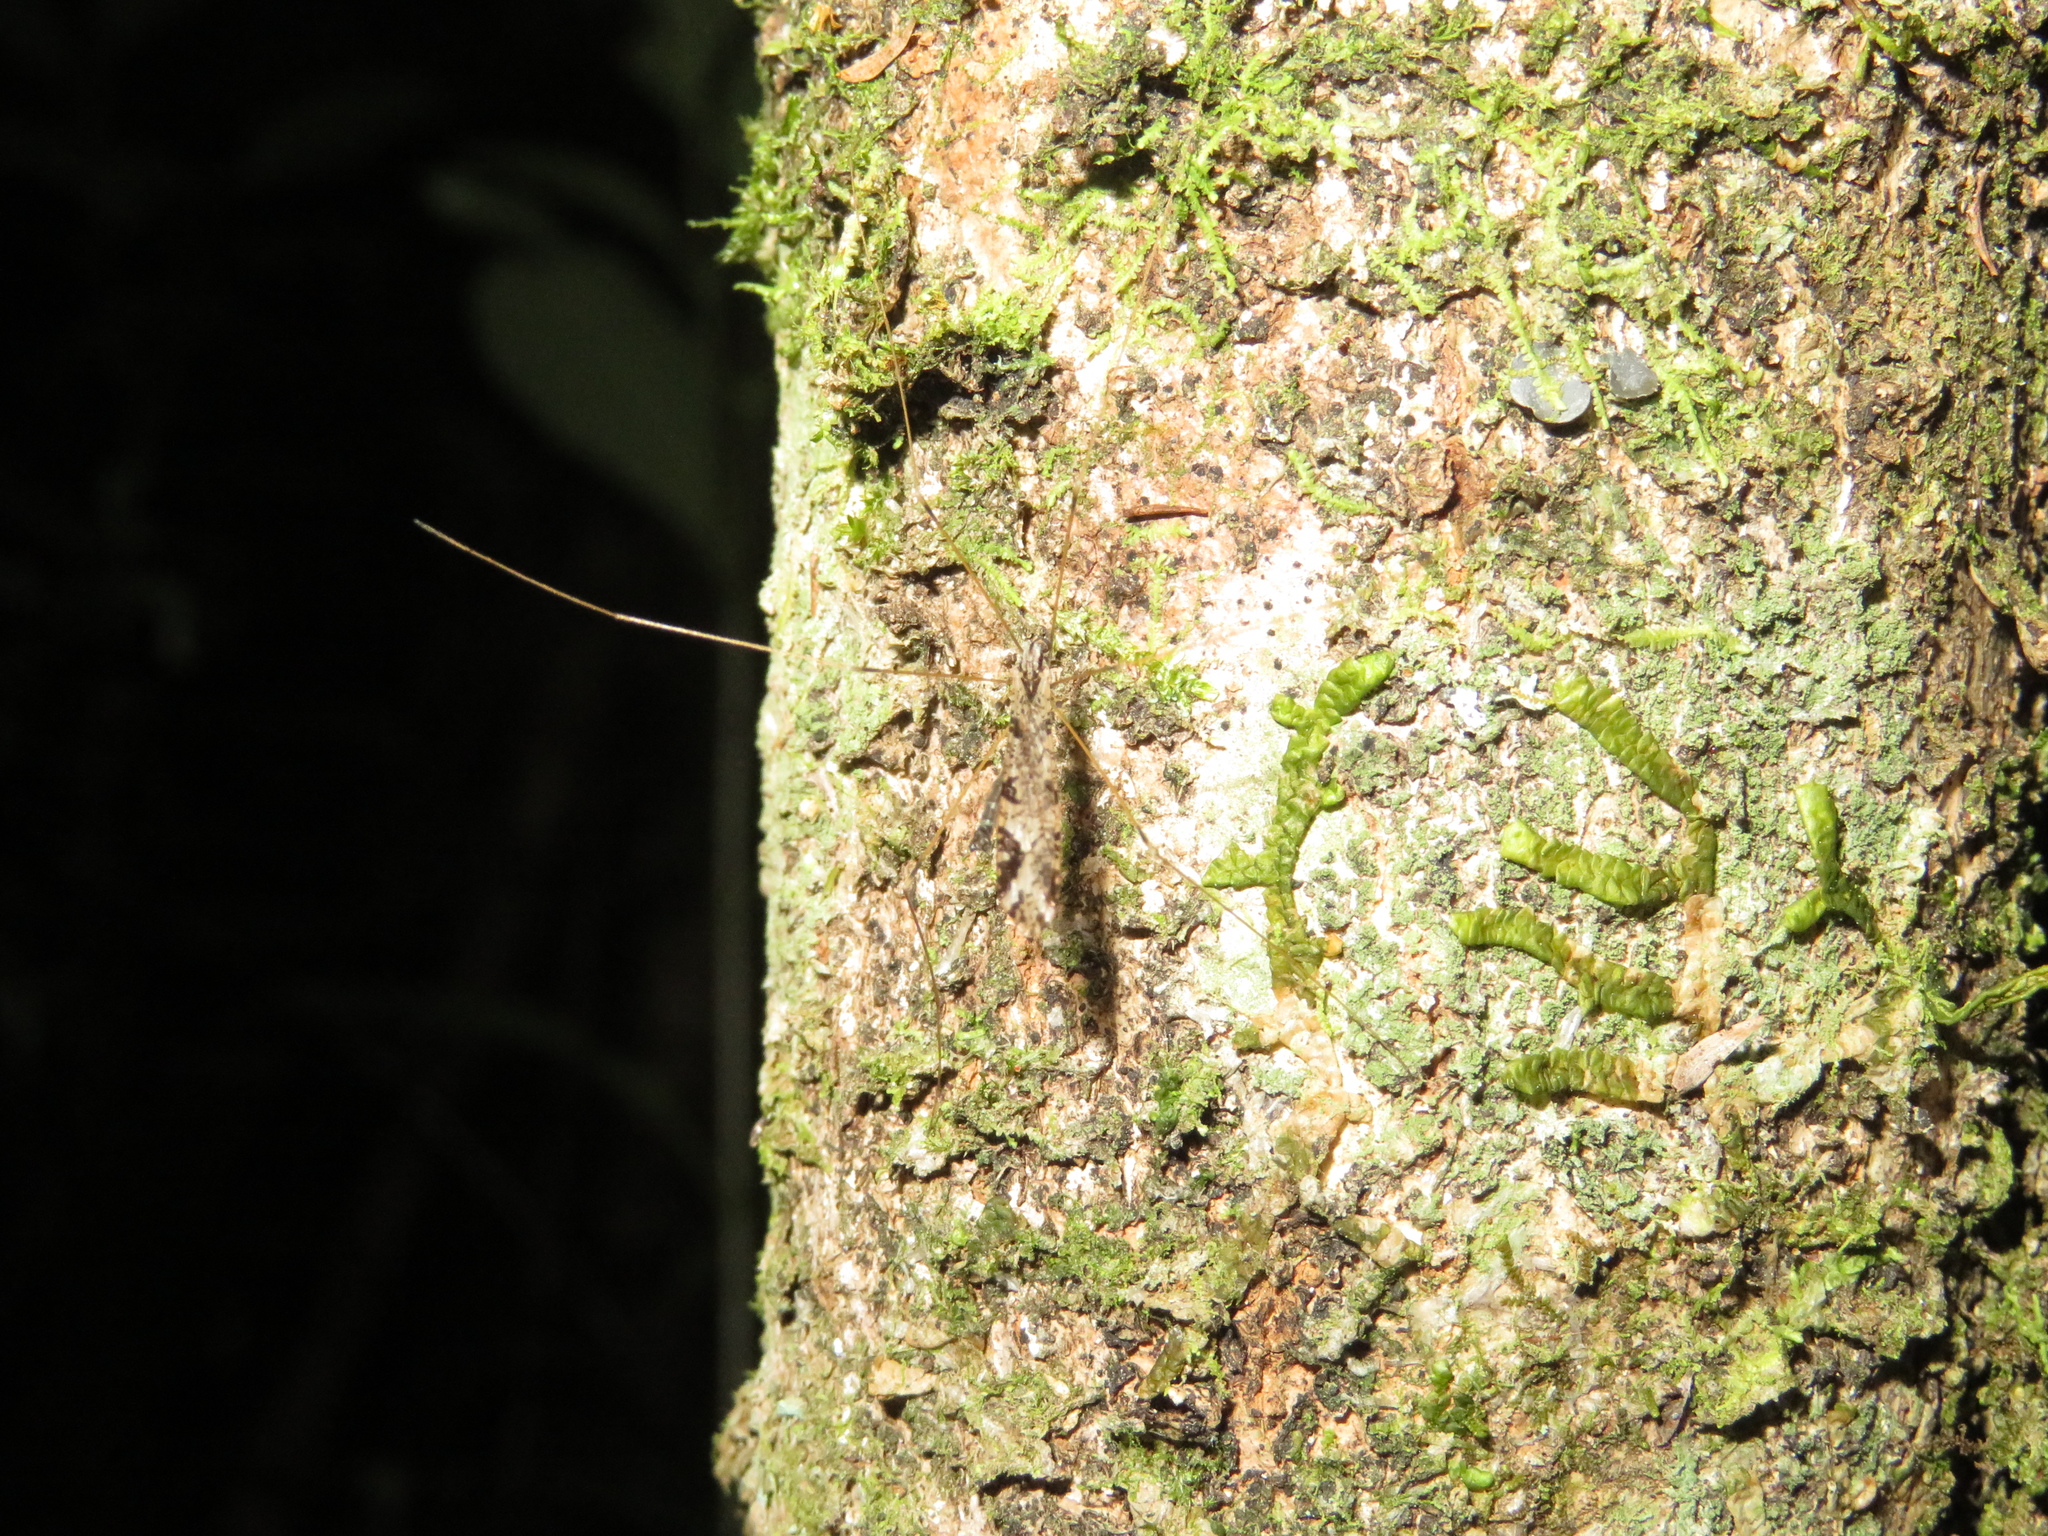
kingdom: Animalia
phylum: Arthropoda
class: Insecta
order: Diptera
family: Limoniidae
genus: Discobola
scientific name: Discobola striata
